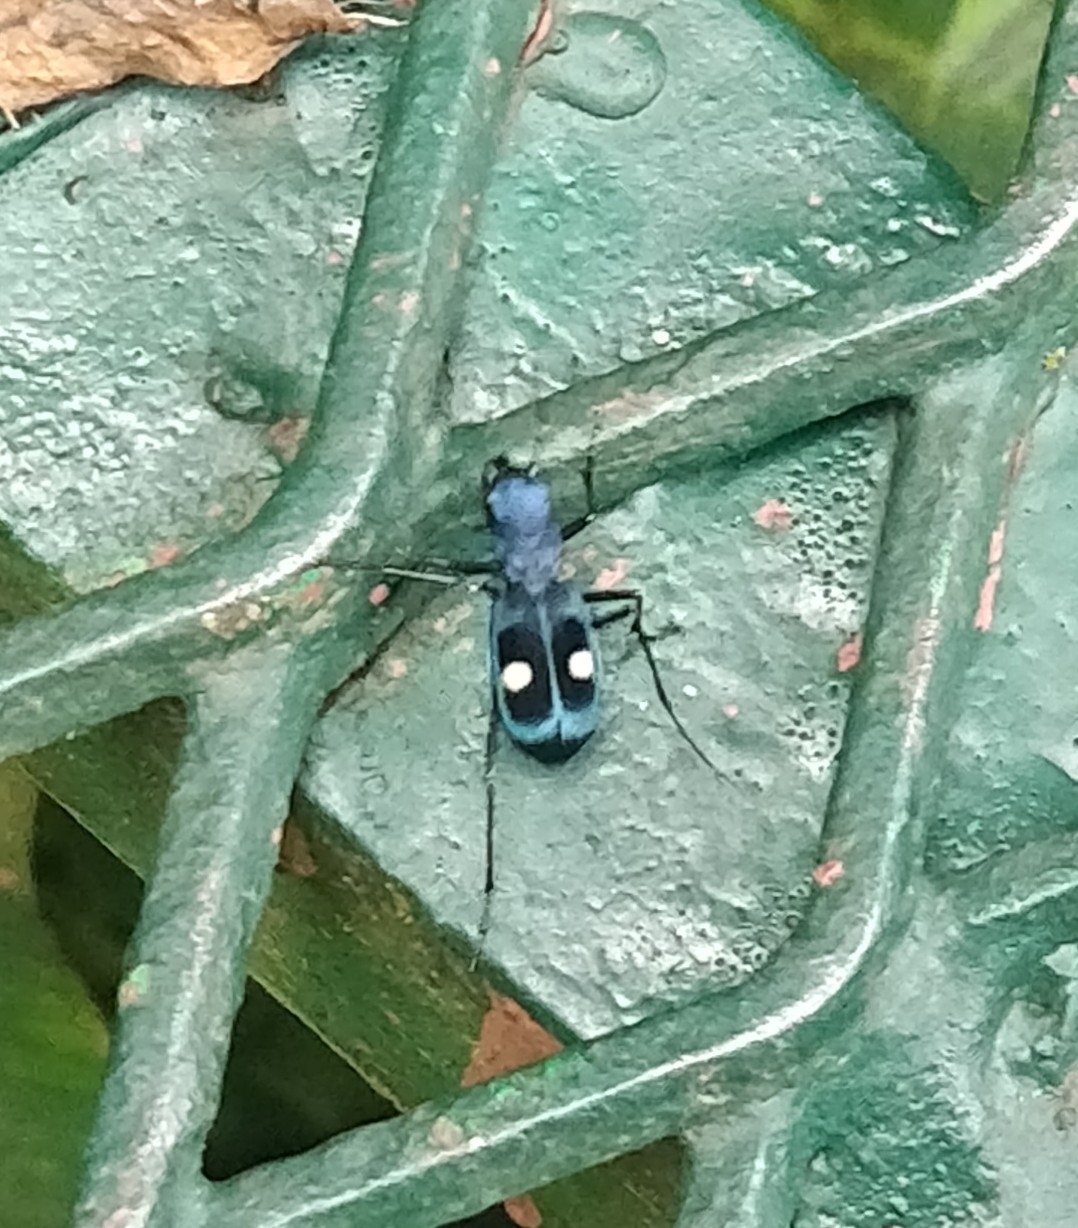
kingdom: Animalia
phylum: Arthropoda
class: Insecta
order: Coleoptera
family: Carabidae
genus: Pseudoxycheila
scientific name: Pseudoxycheila tarsalis
